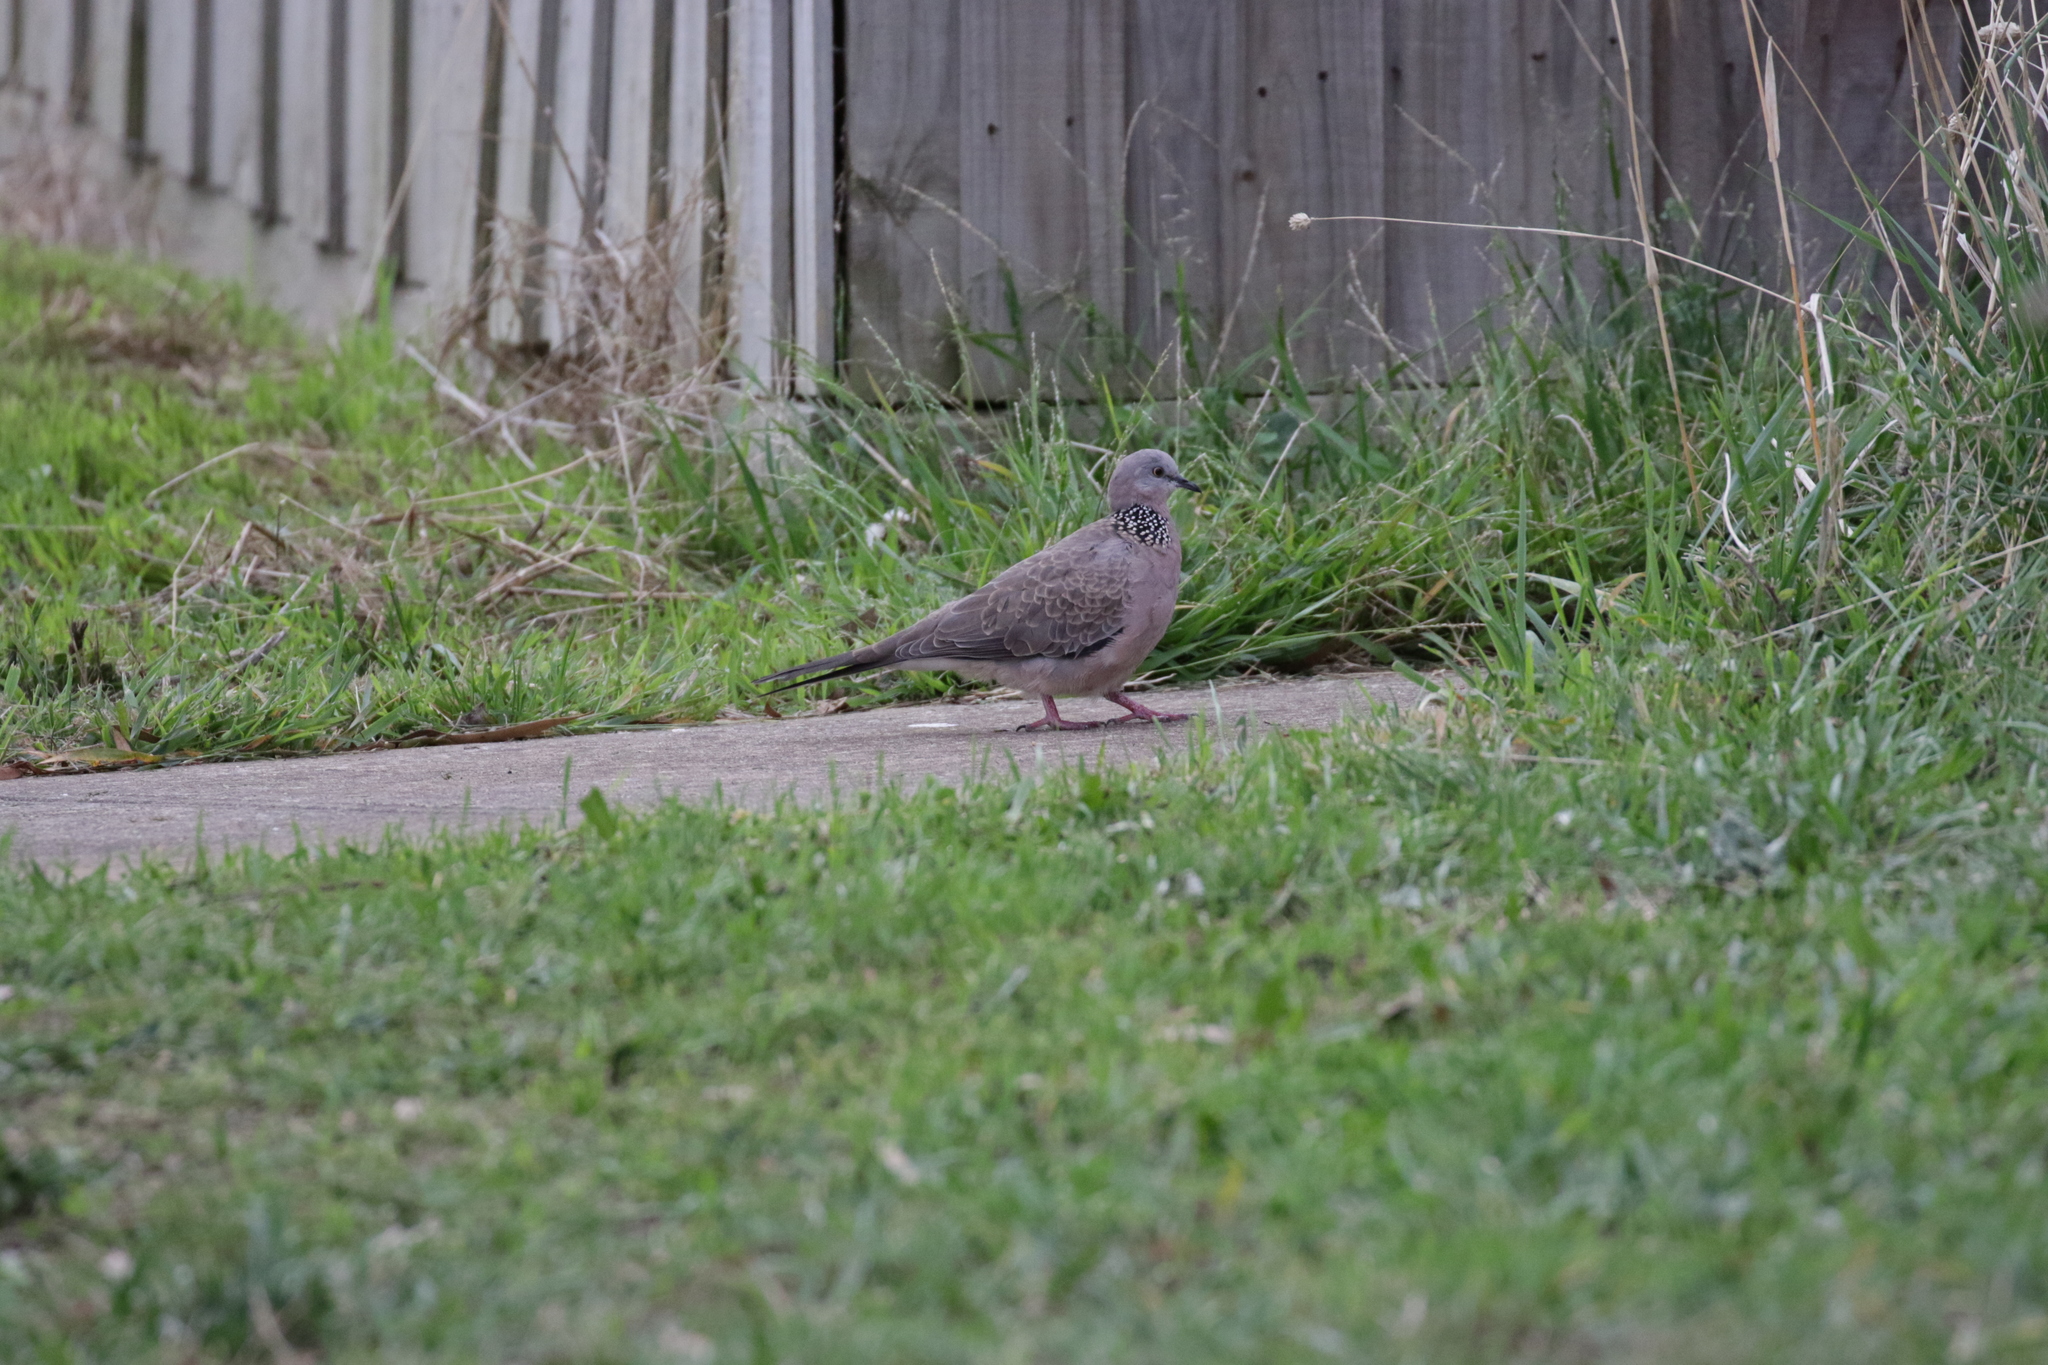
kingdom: Animalia
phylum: Chordata
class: Aves
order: Columbiformes
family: Columbidae
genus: Spilopelia
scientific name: Spilopelia chinensis
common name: Spotted dove
